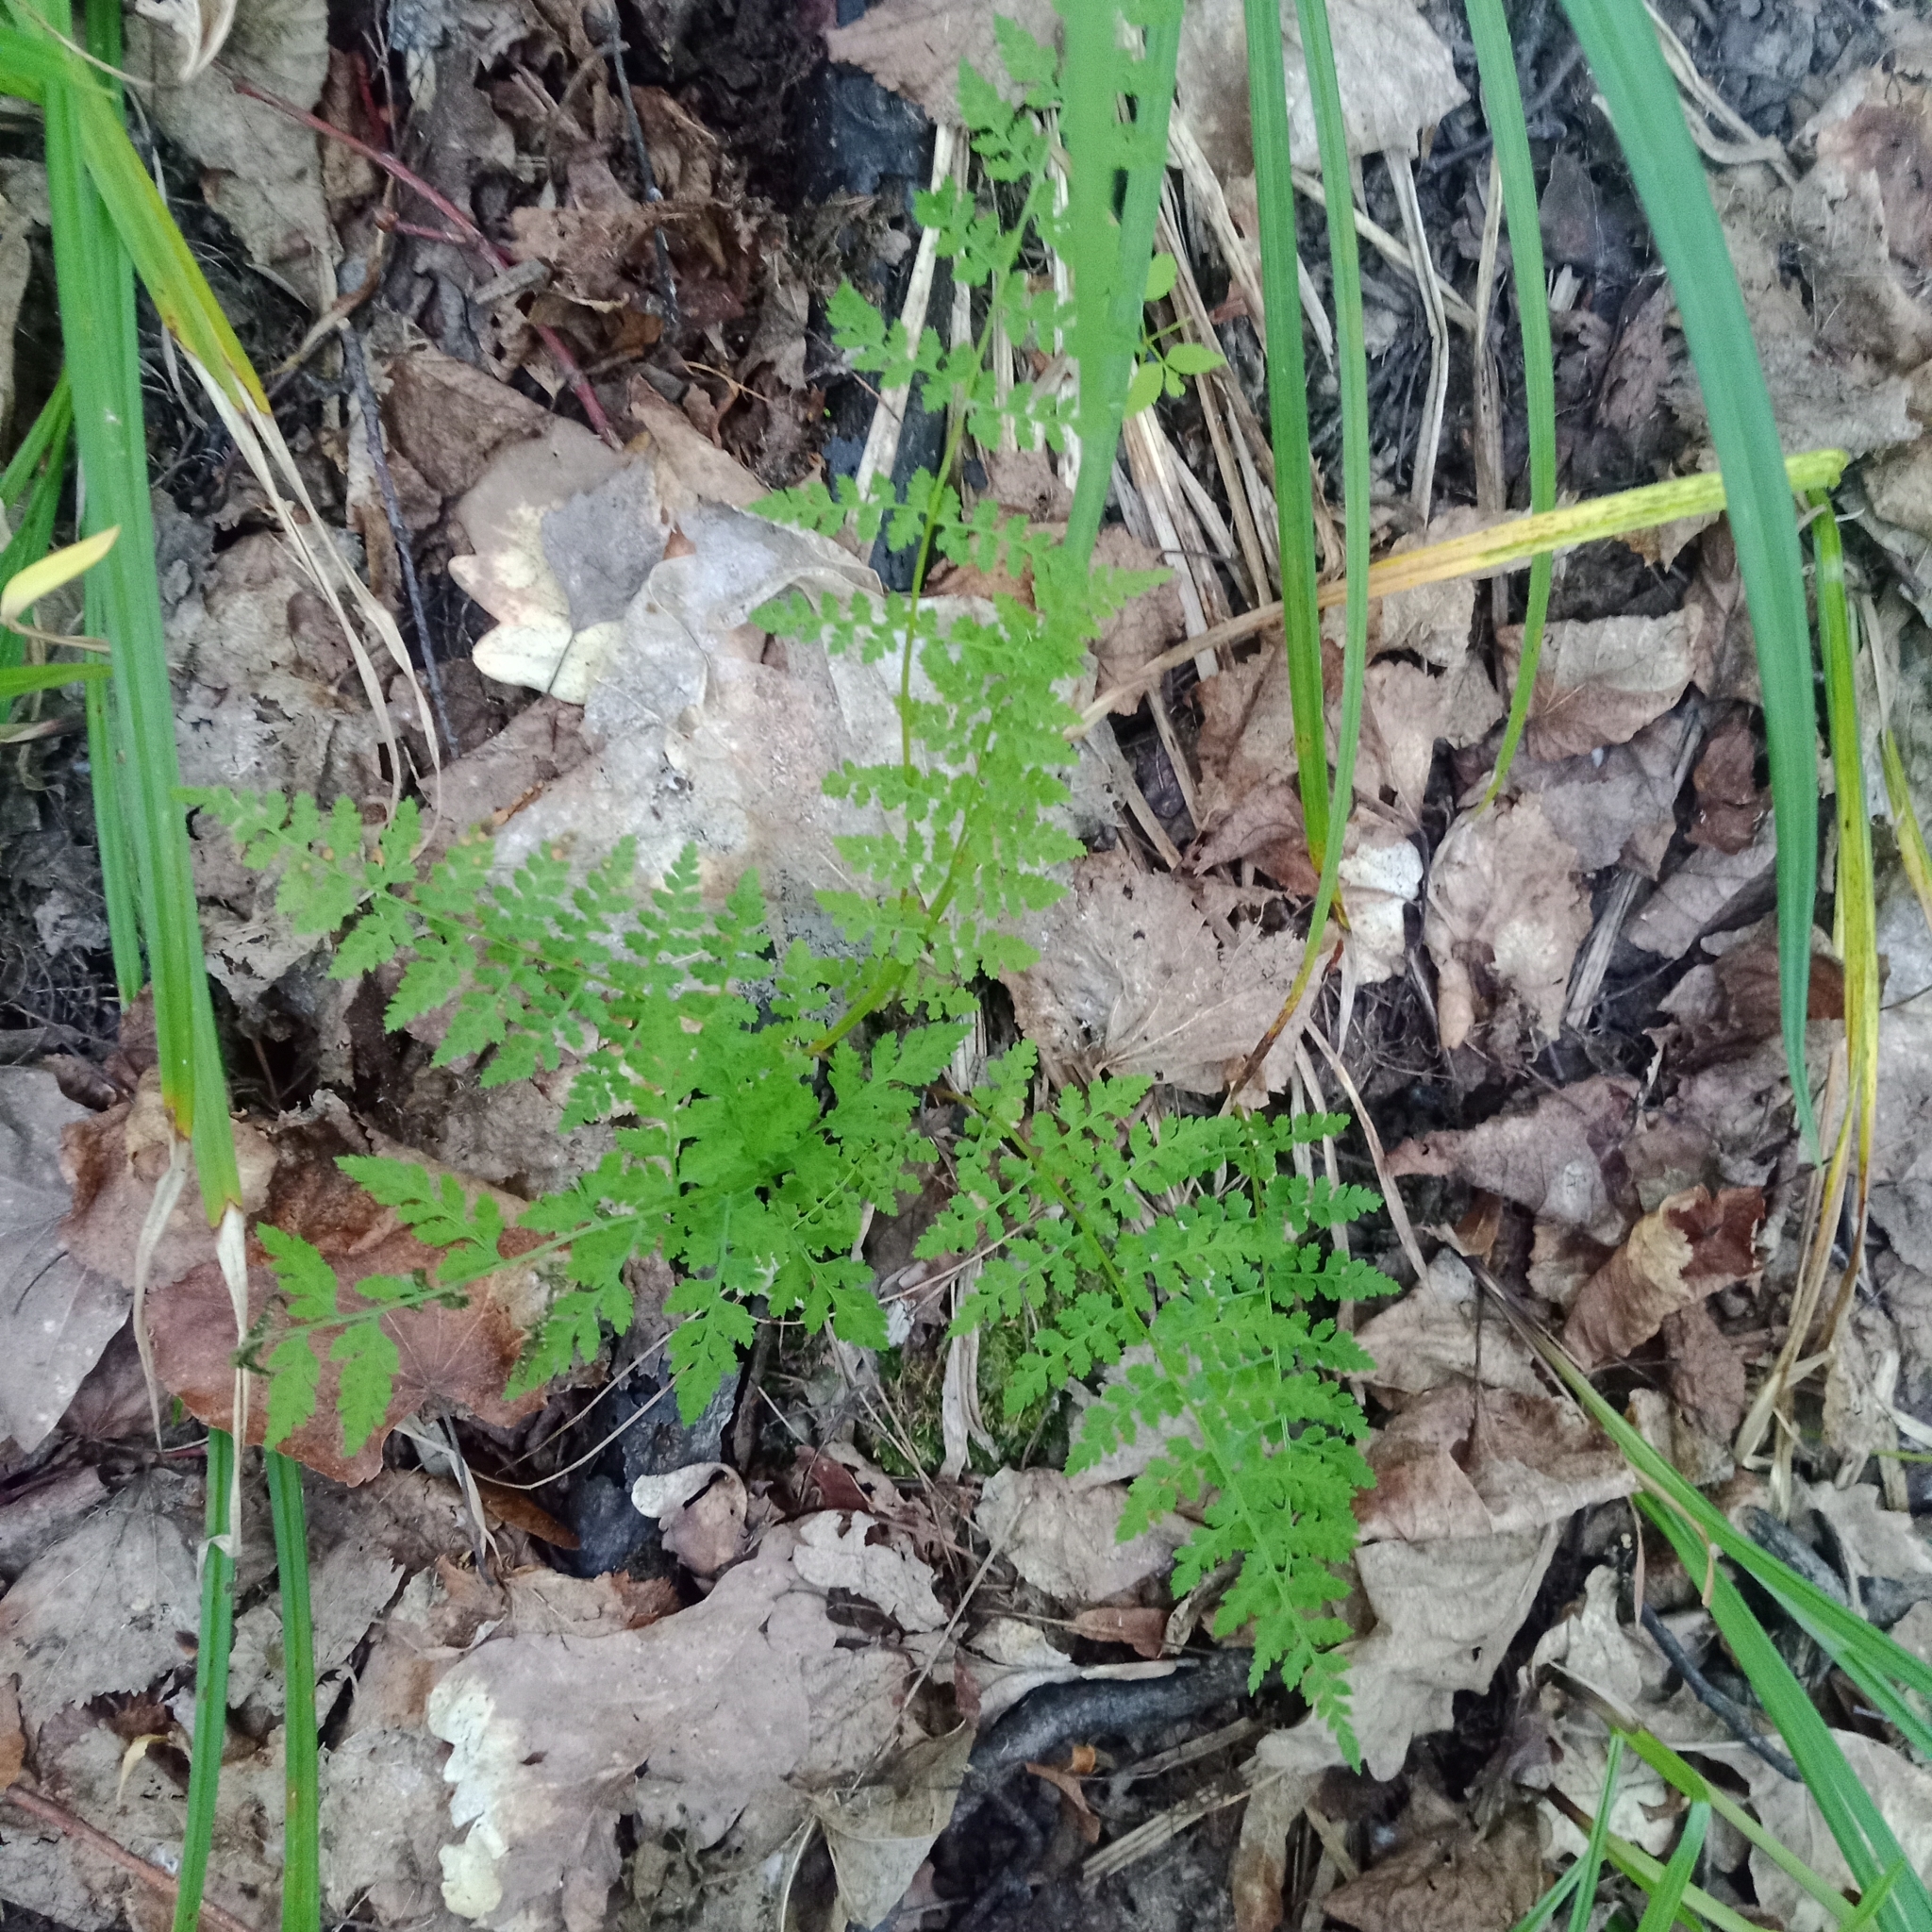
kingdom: Plantae
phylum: Tracheophyta
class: Polypodiopsida
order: Polypodiales
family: Cystopteridaceae
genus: Cystopteris
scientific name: Cystopteris fragilis
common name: Brittle bladder fern
